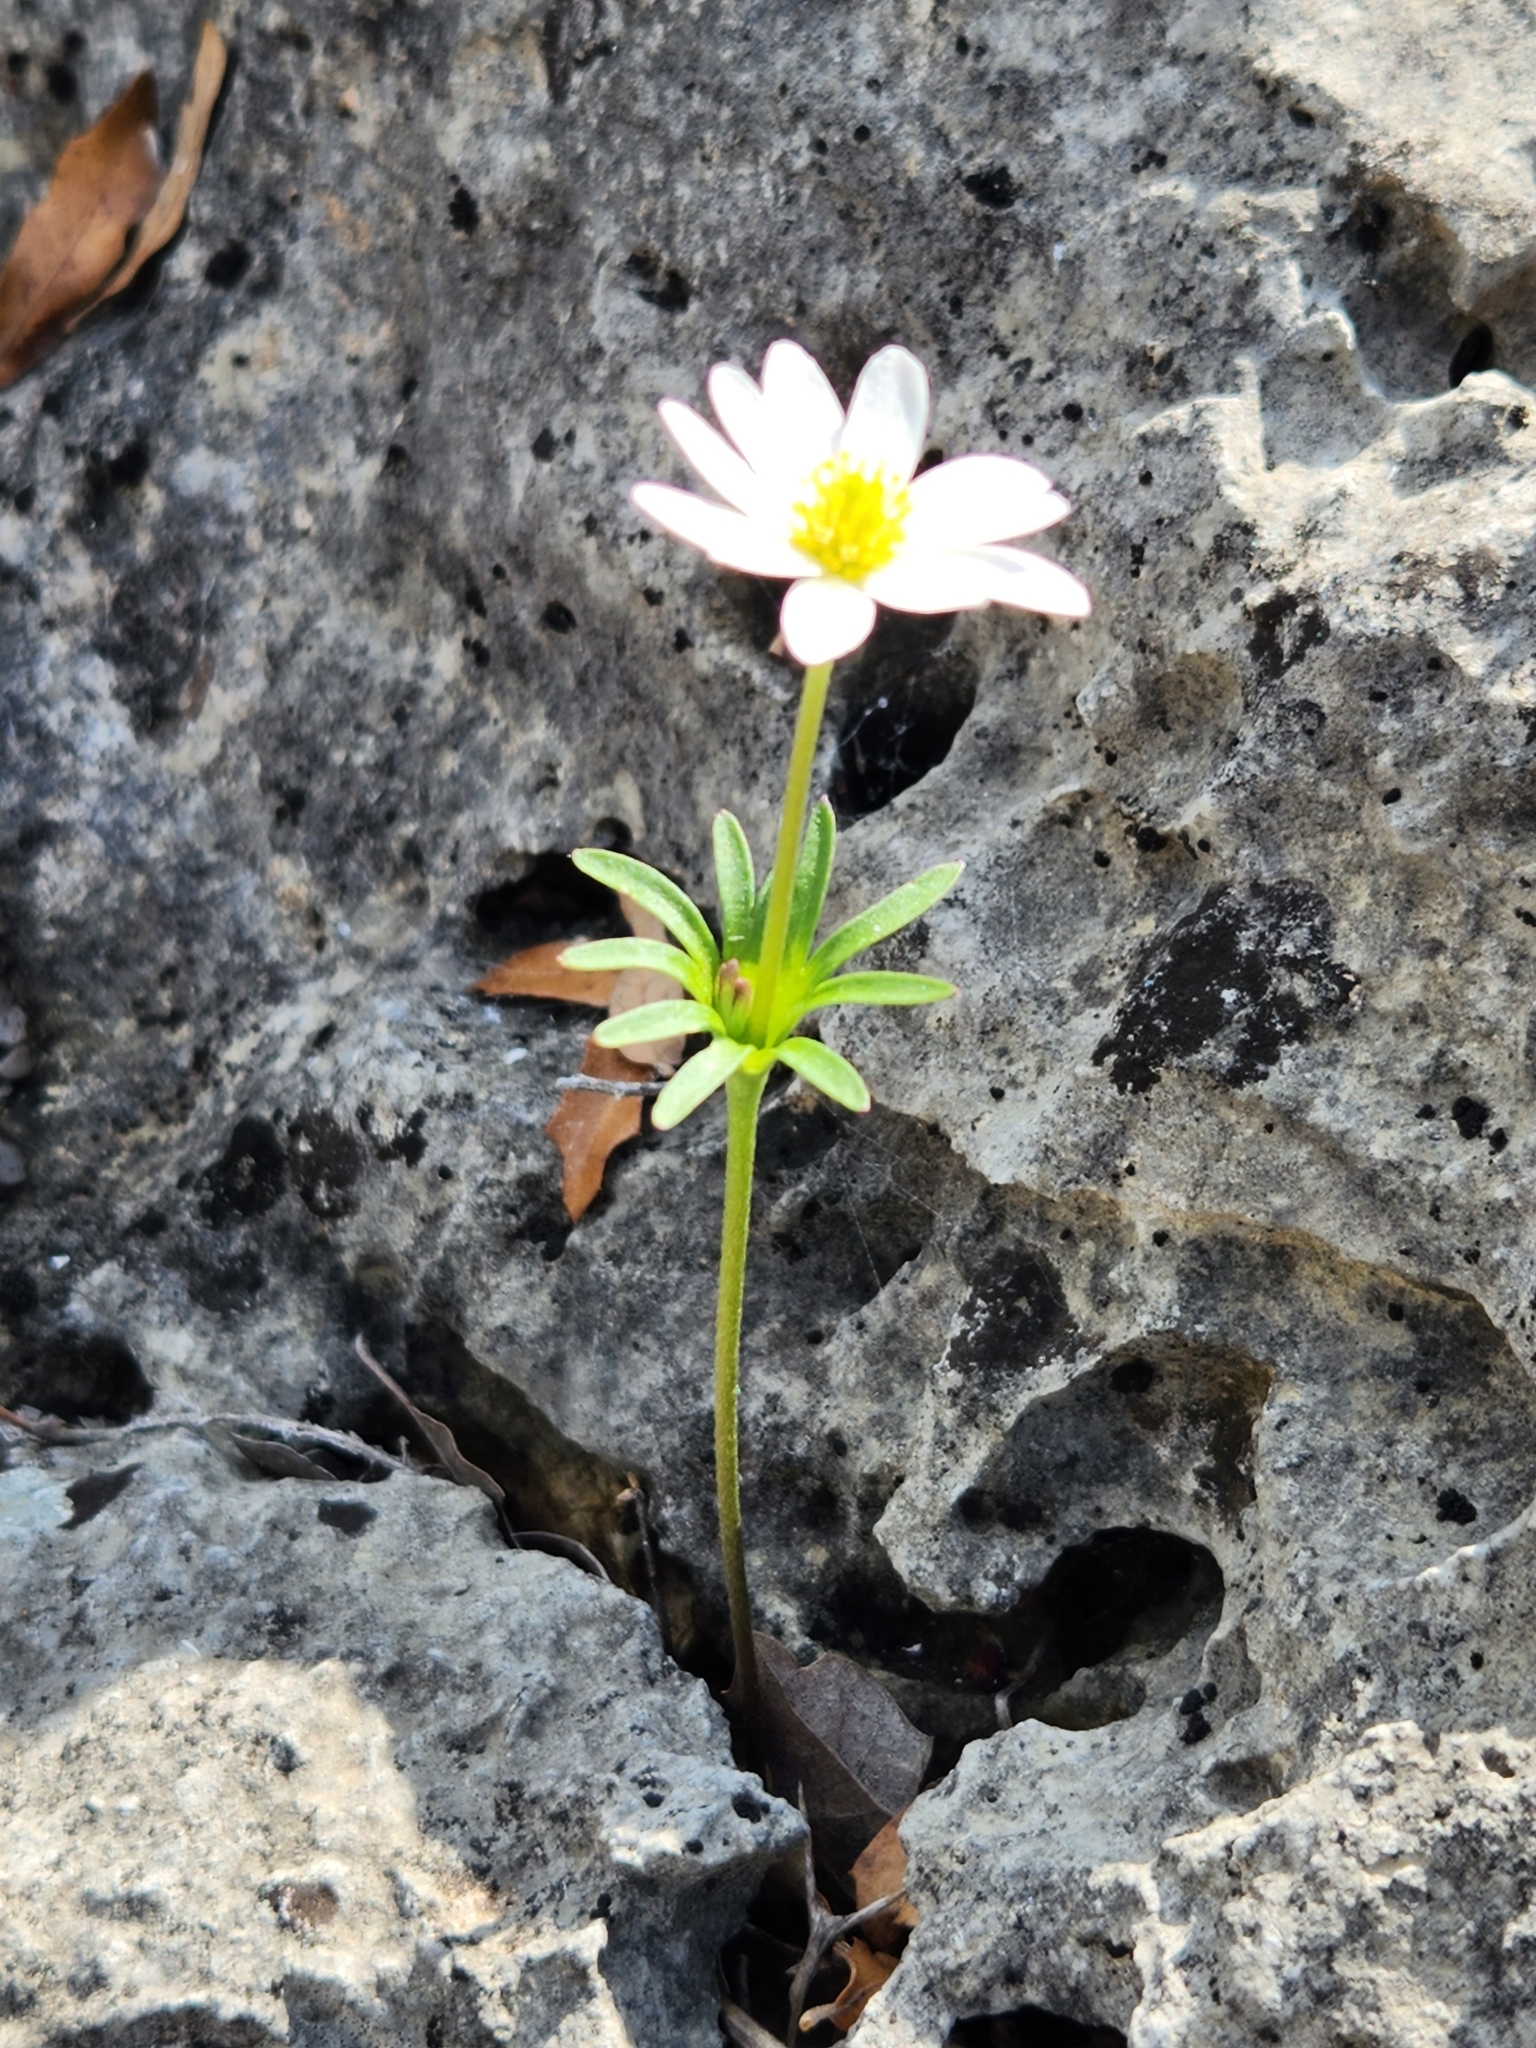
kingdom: Plantae
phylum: Tracheophyta
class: Magnoliopsida
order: Ranunculales
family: Ranunculaceae
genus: Anemone
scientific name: Anemone edwardsiana
